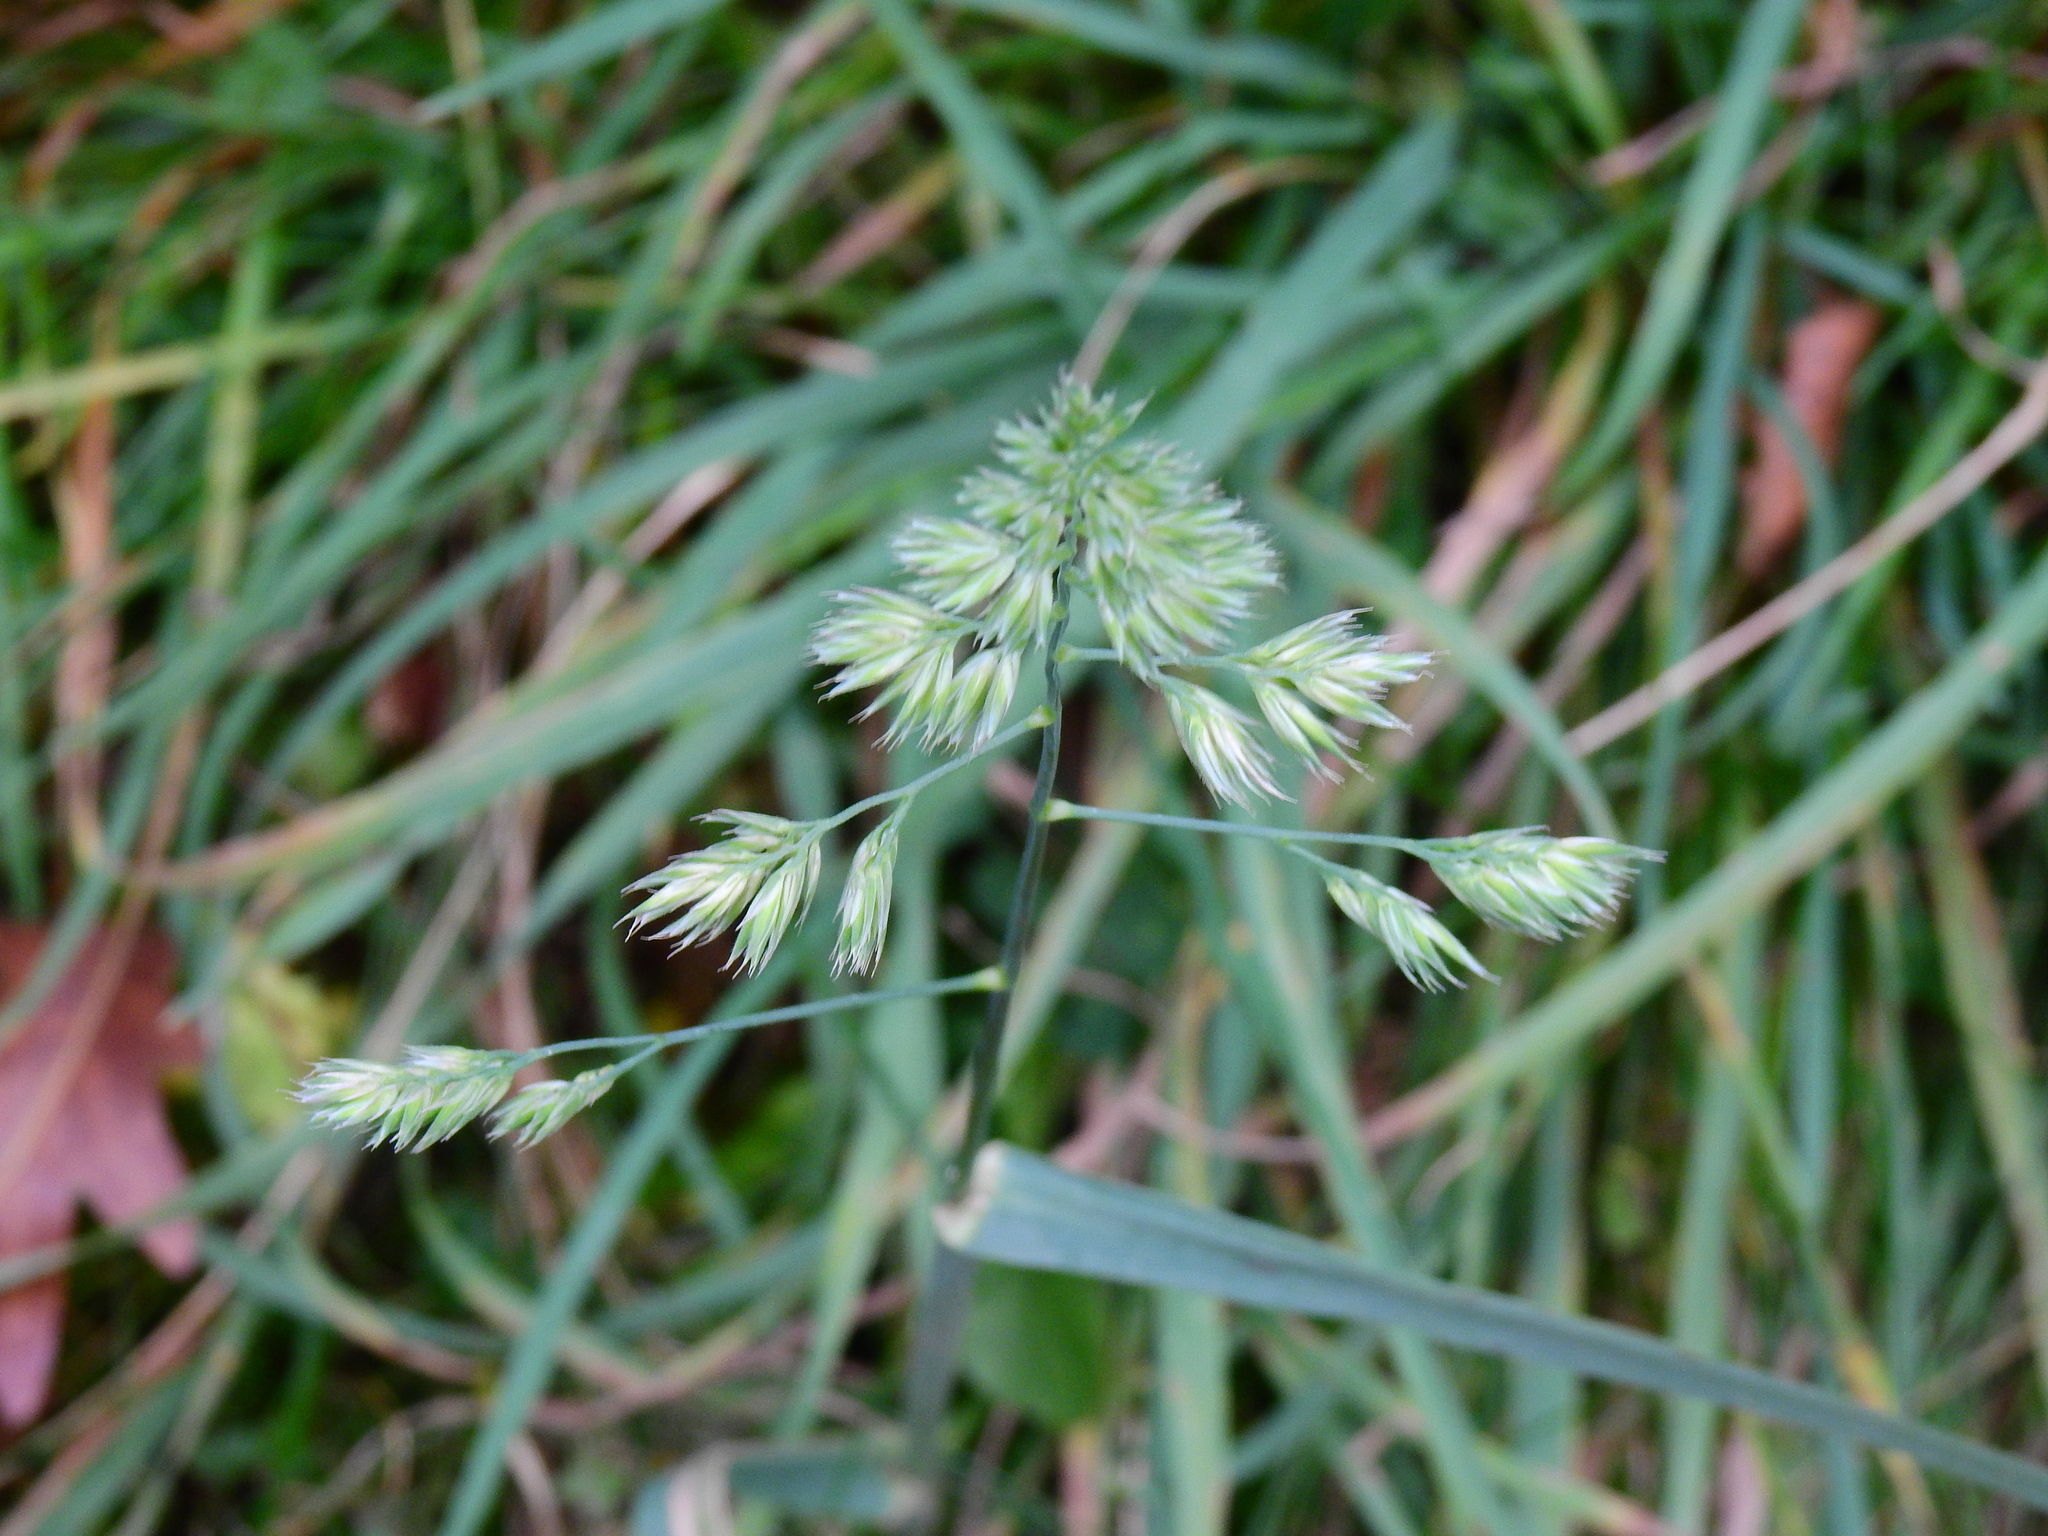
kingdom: Plantae
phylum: Tracheophyta
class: Liliopsida
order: Poales
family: Poaceae
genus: Dactylis
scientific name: Dactylis glomerata
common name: Orchardgrass
